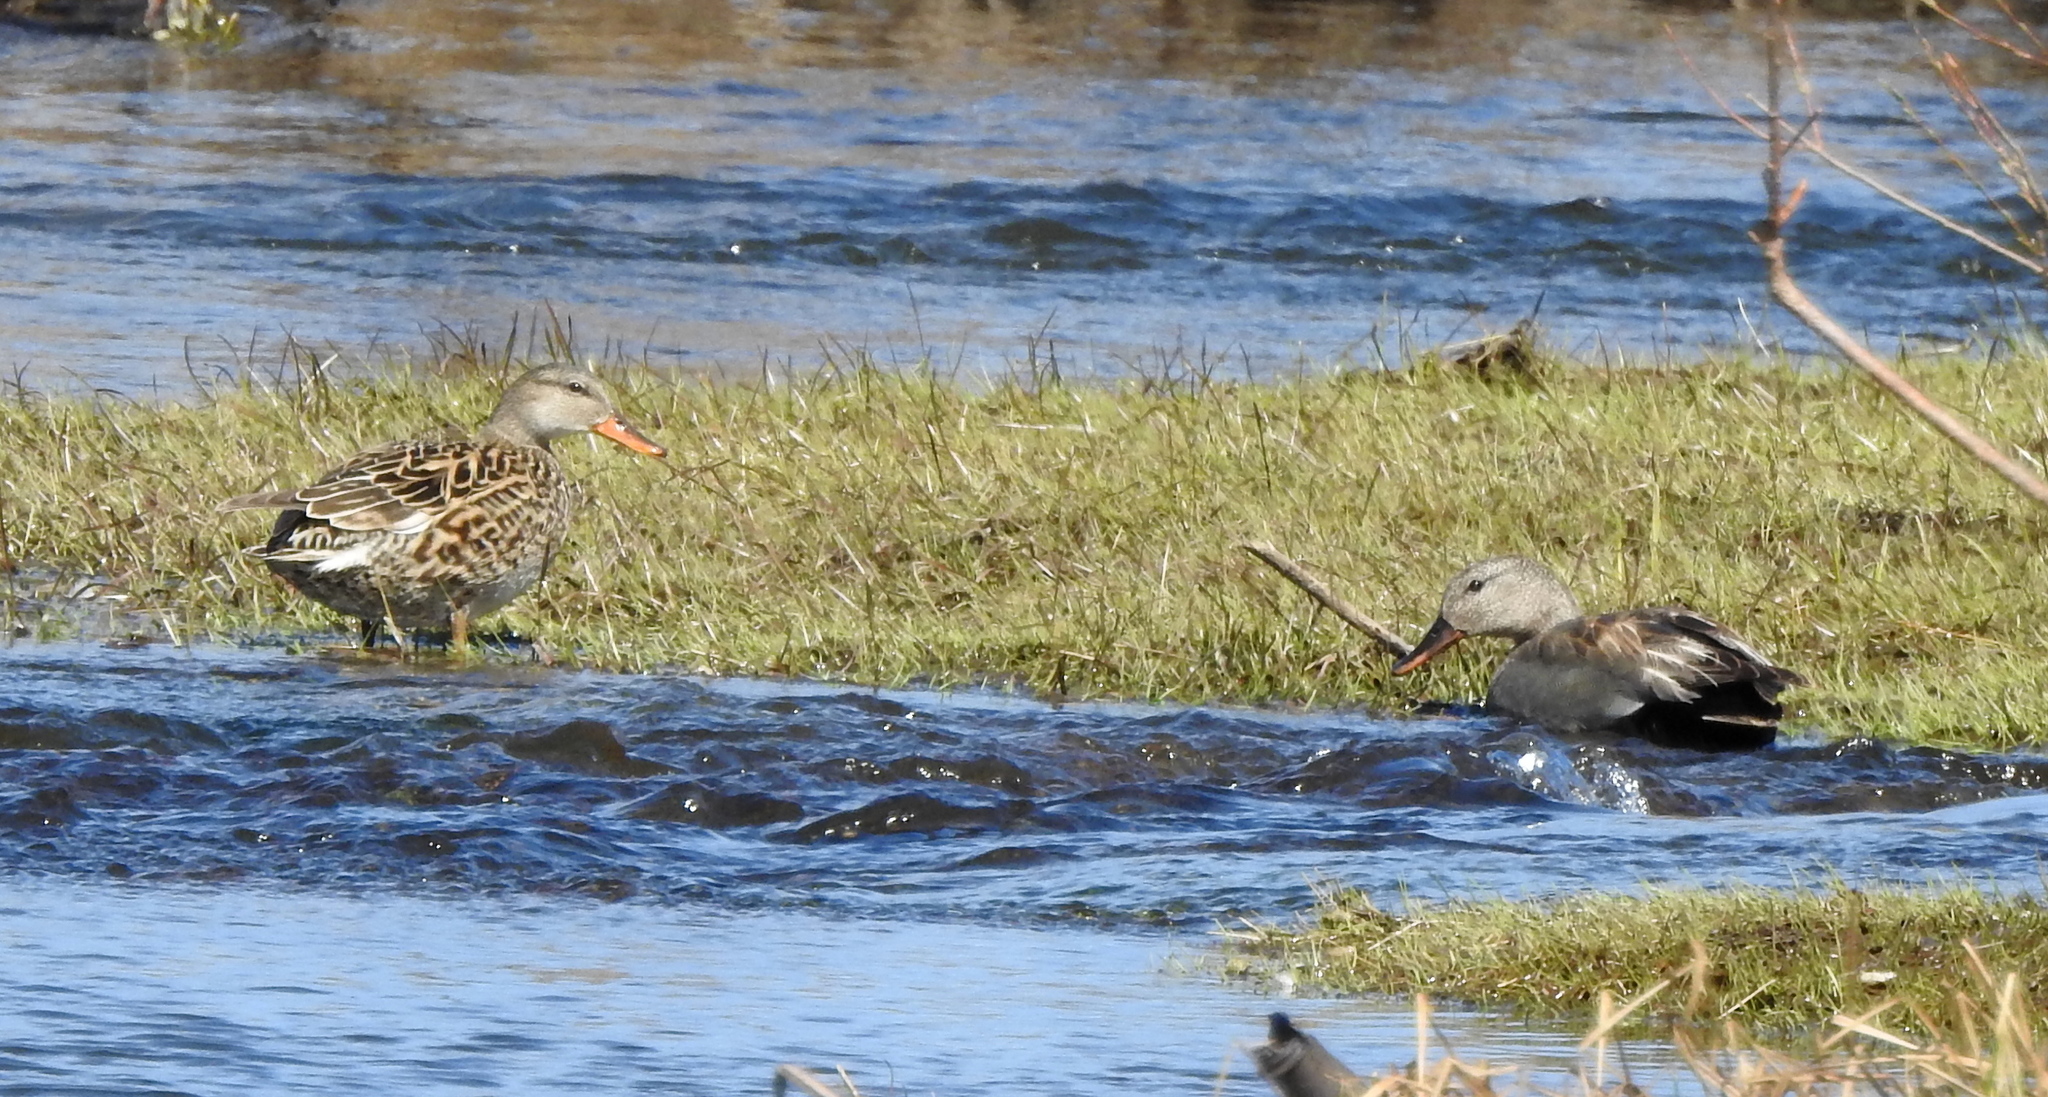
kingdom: Animalia
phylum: Chordata
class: Aves
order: Anseriformes
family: Anatidae
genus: Mareca
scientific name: Mareca strepera
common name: Gadwall
